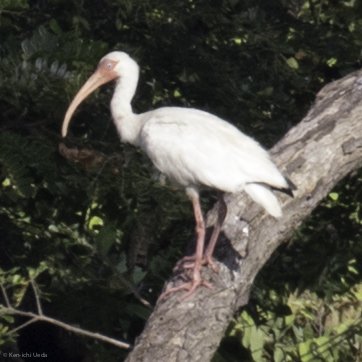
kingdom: Animalia
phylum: Chordata
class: Aves
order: Pelecaniformes
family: Threskiornithidae
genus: Eudocimus
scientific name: Eudocimus albus
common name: White ibis
